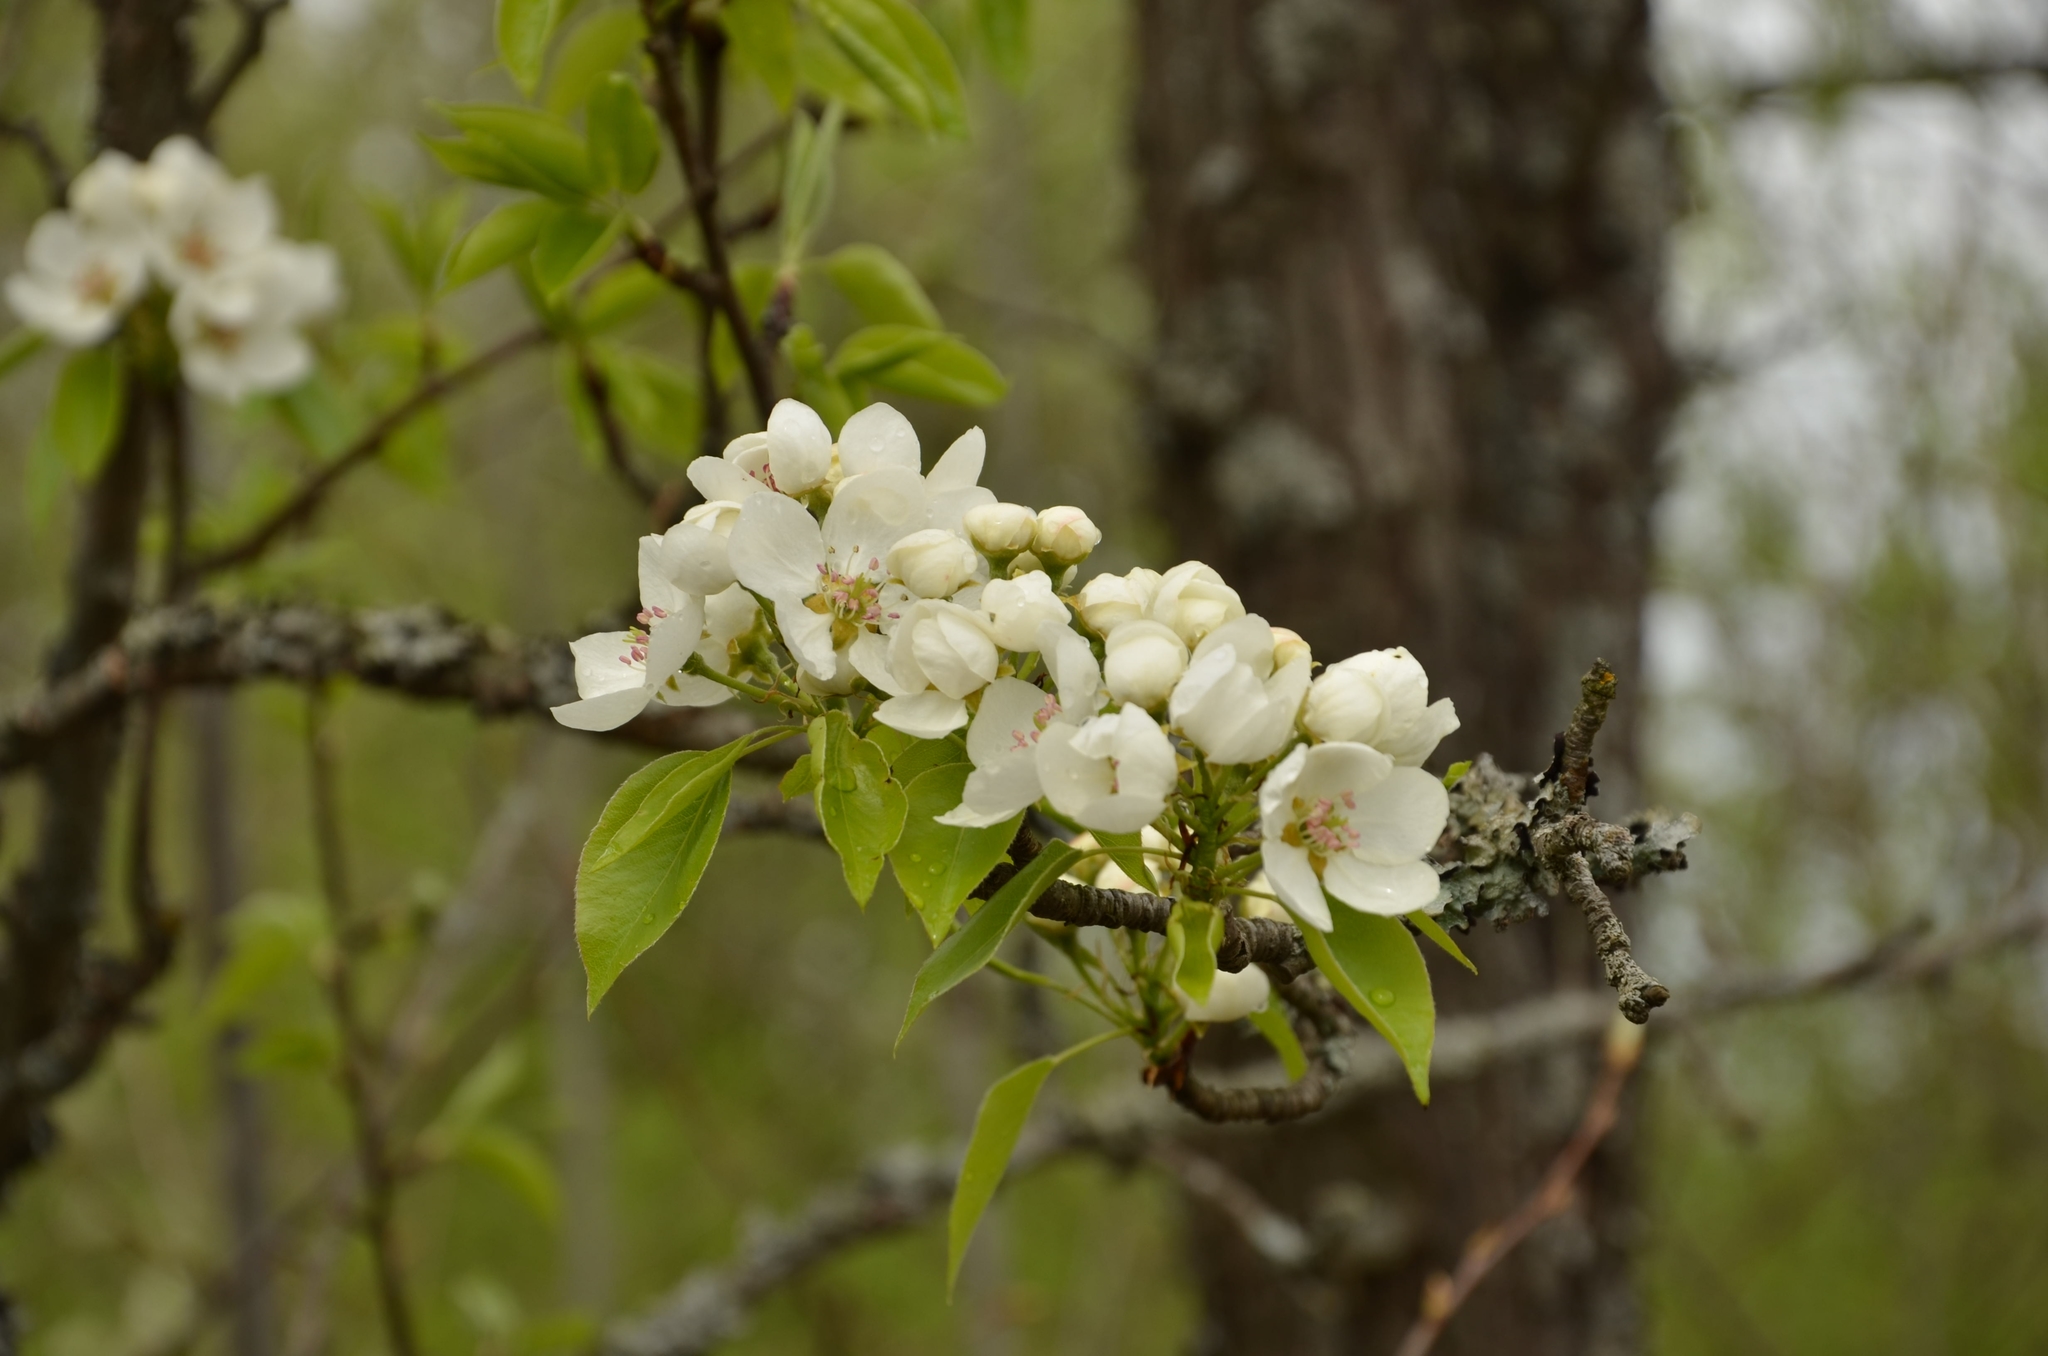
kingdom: Plantae
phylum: Tracheophyta
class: Magnoliopsida
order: Rosales
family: Rosaceae
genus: Pyrus
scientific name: Pyrus communis
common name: Pear
